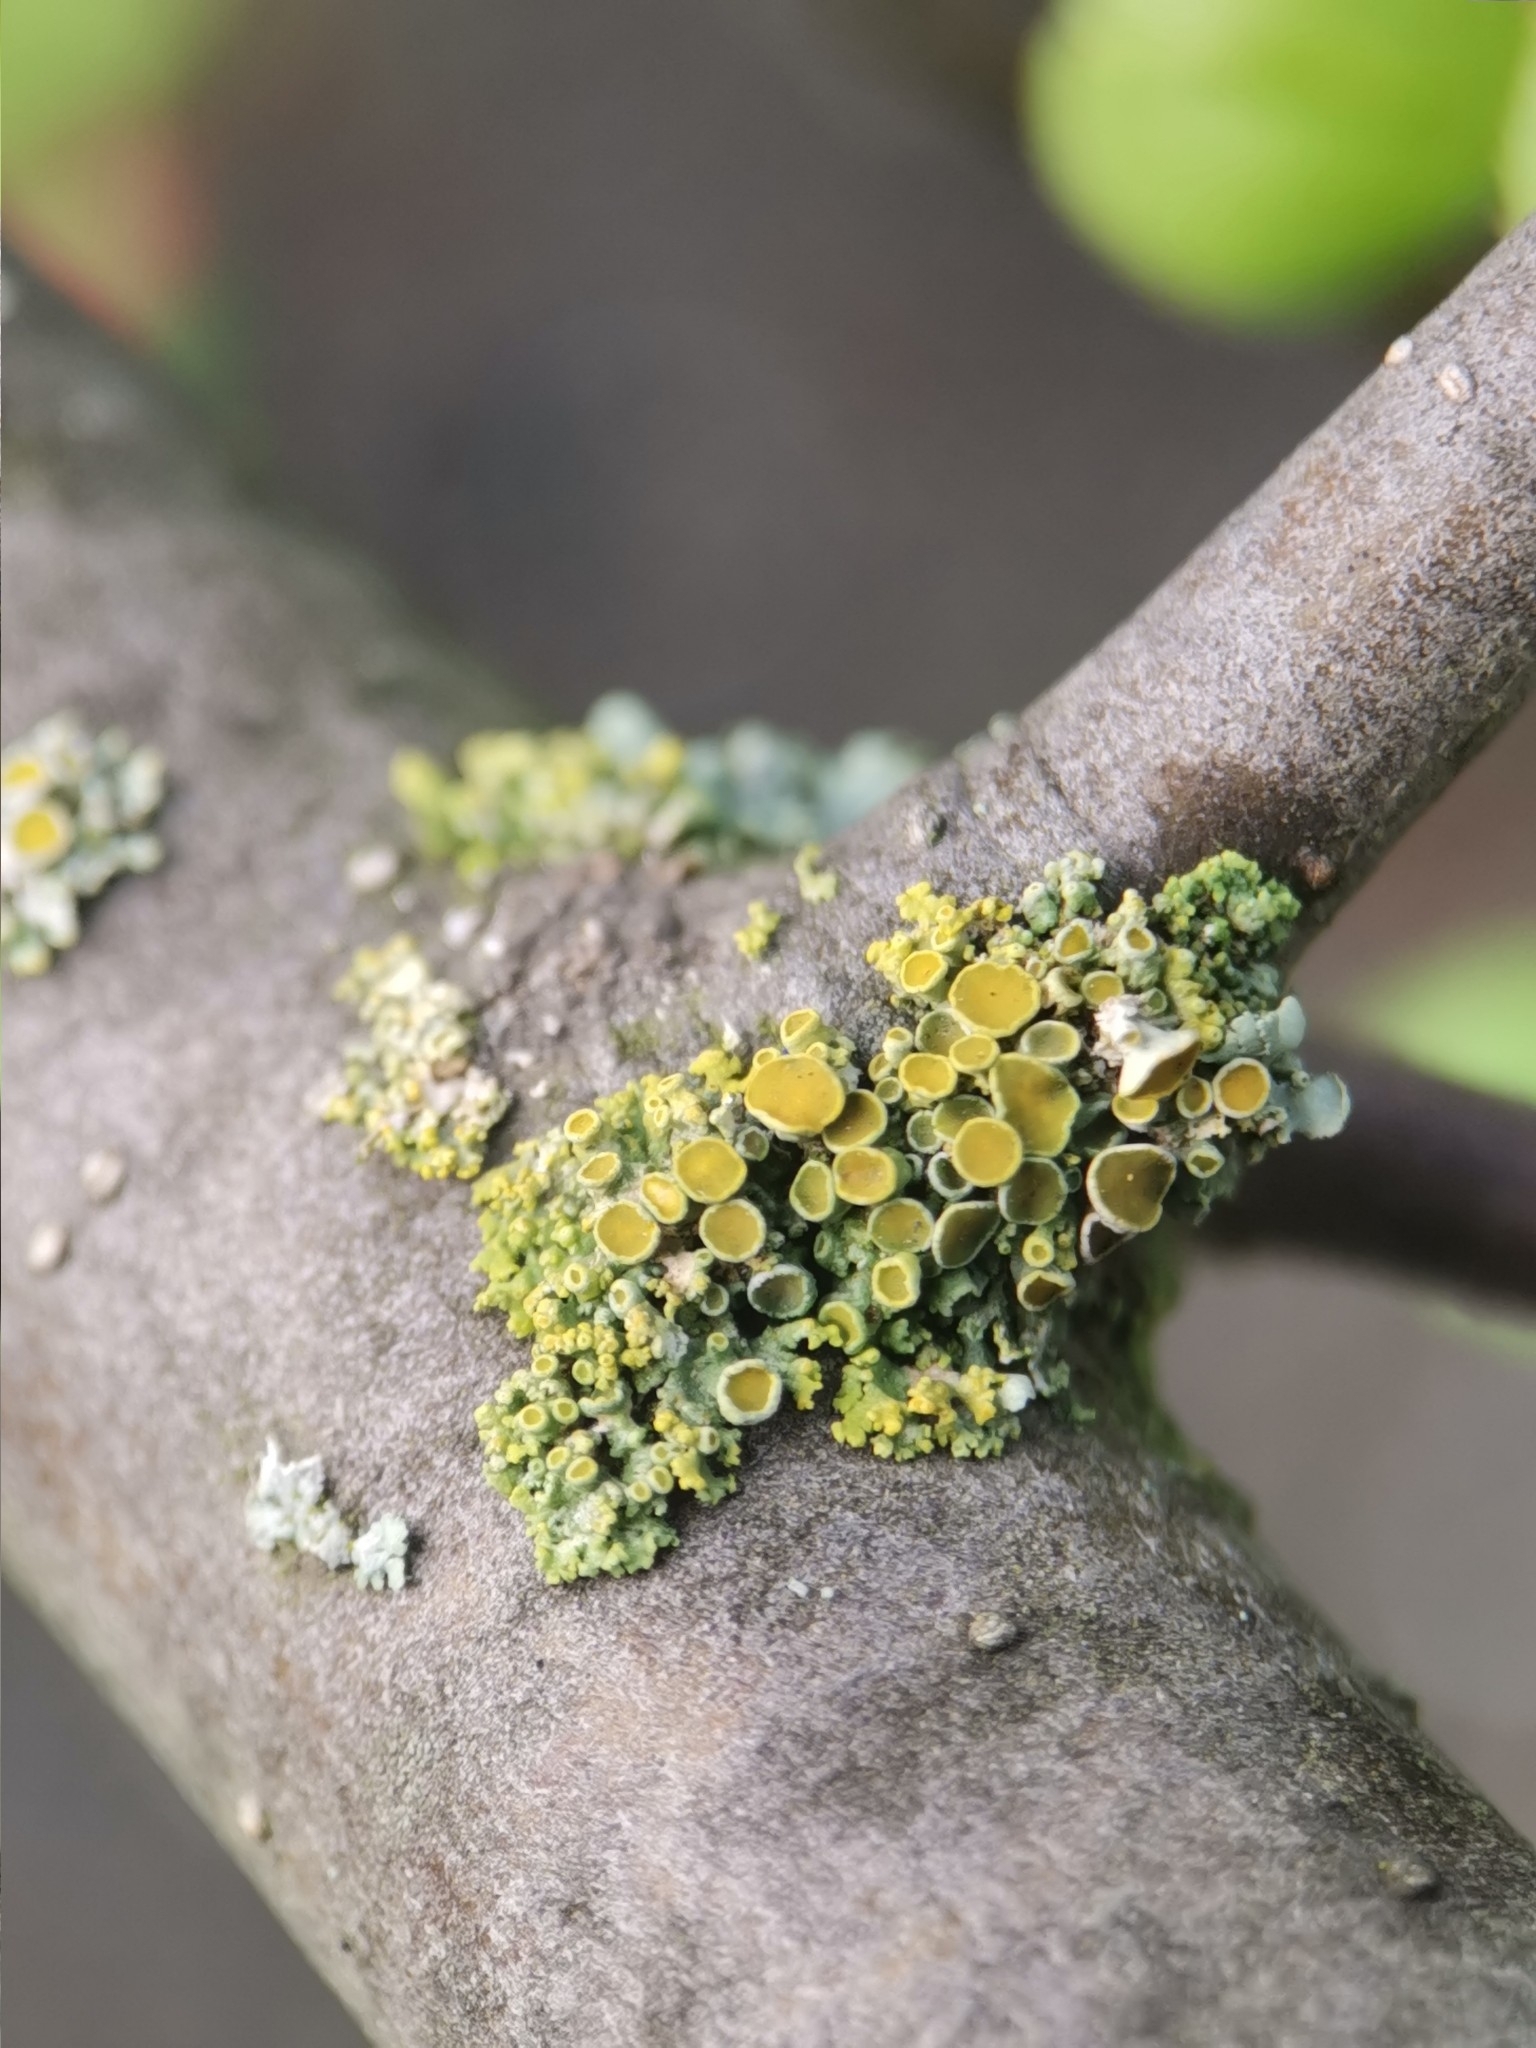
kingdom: Fungi
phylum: Ascomycota
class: Lecanoromycetes
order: Teloschistales
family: Teloschistaceae
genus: Polycauliona
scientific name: Polycauliona polycarpa
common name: Pin-cushion sunburst lichen
